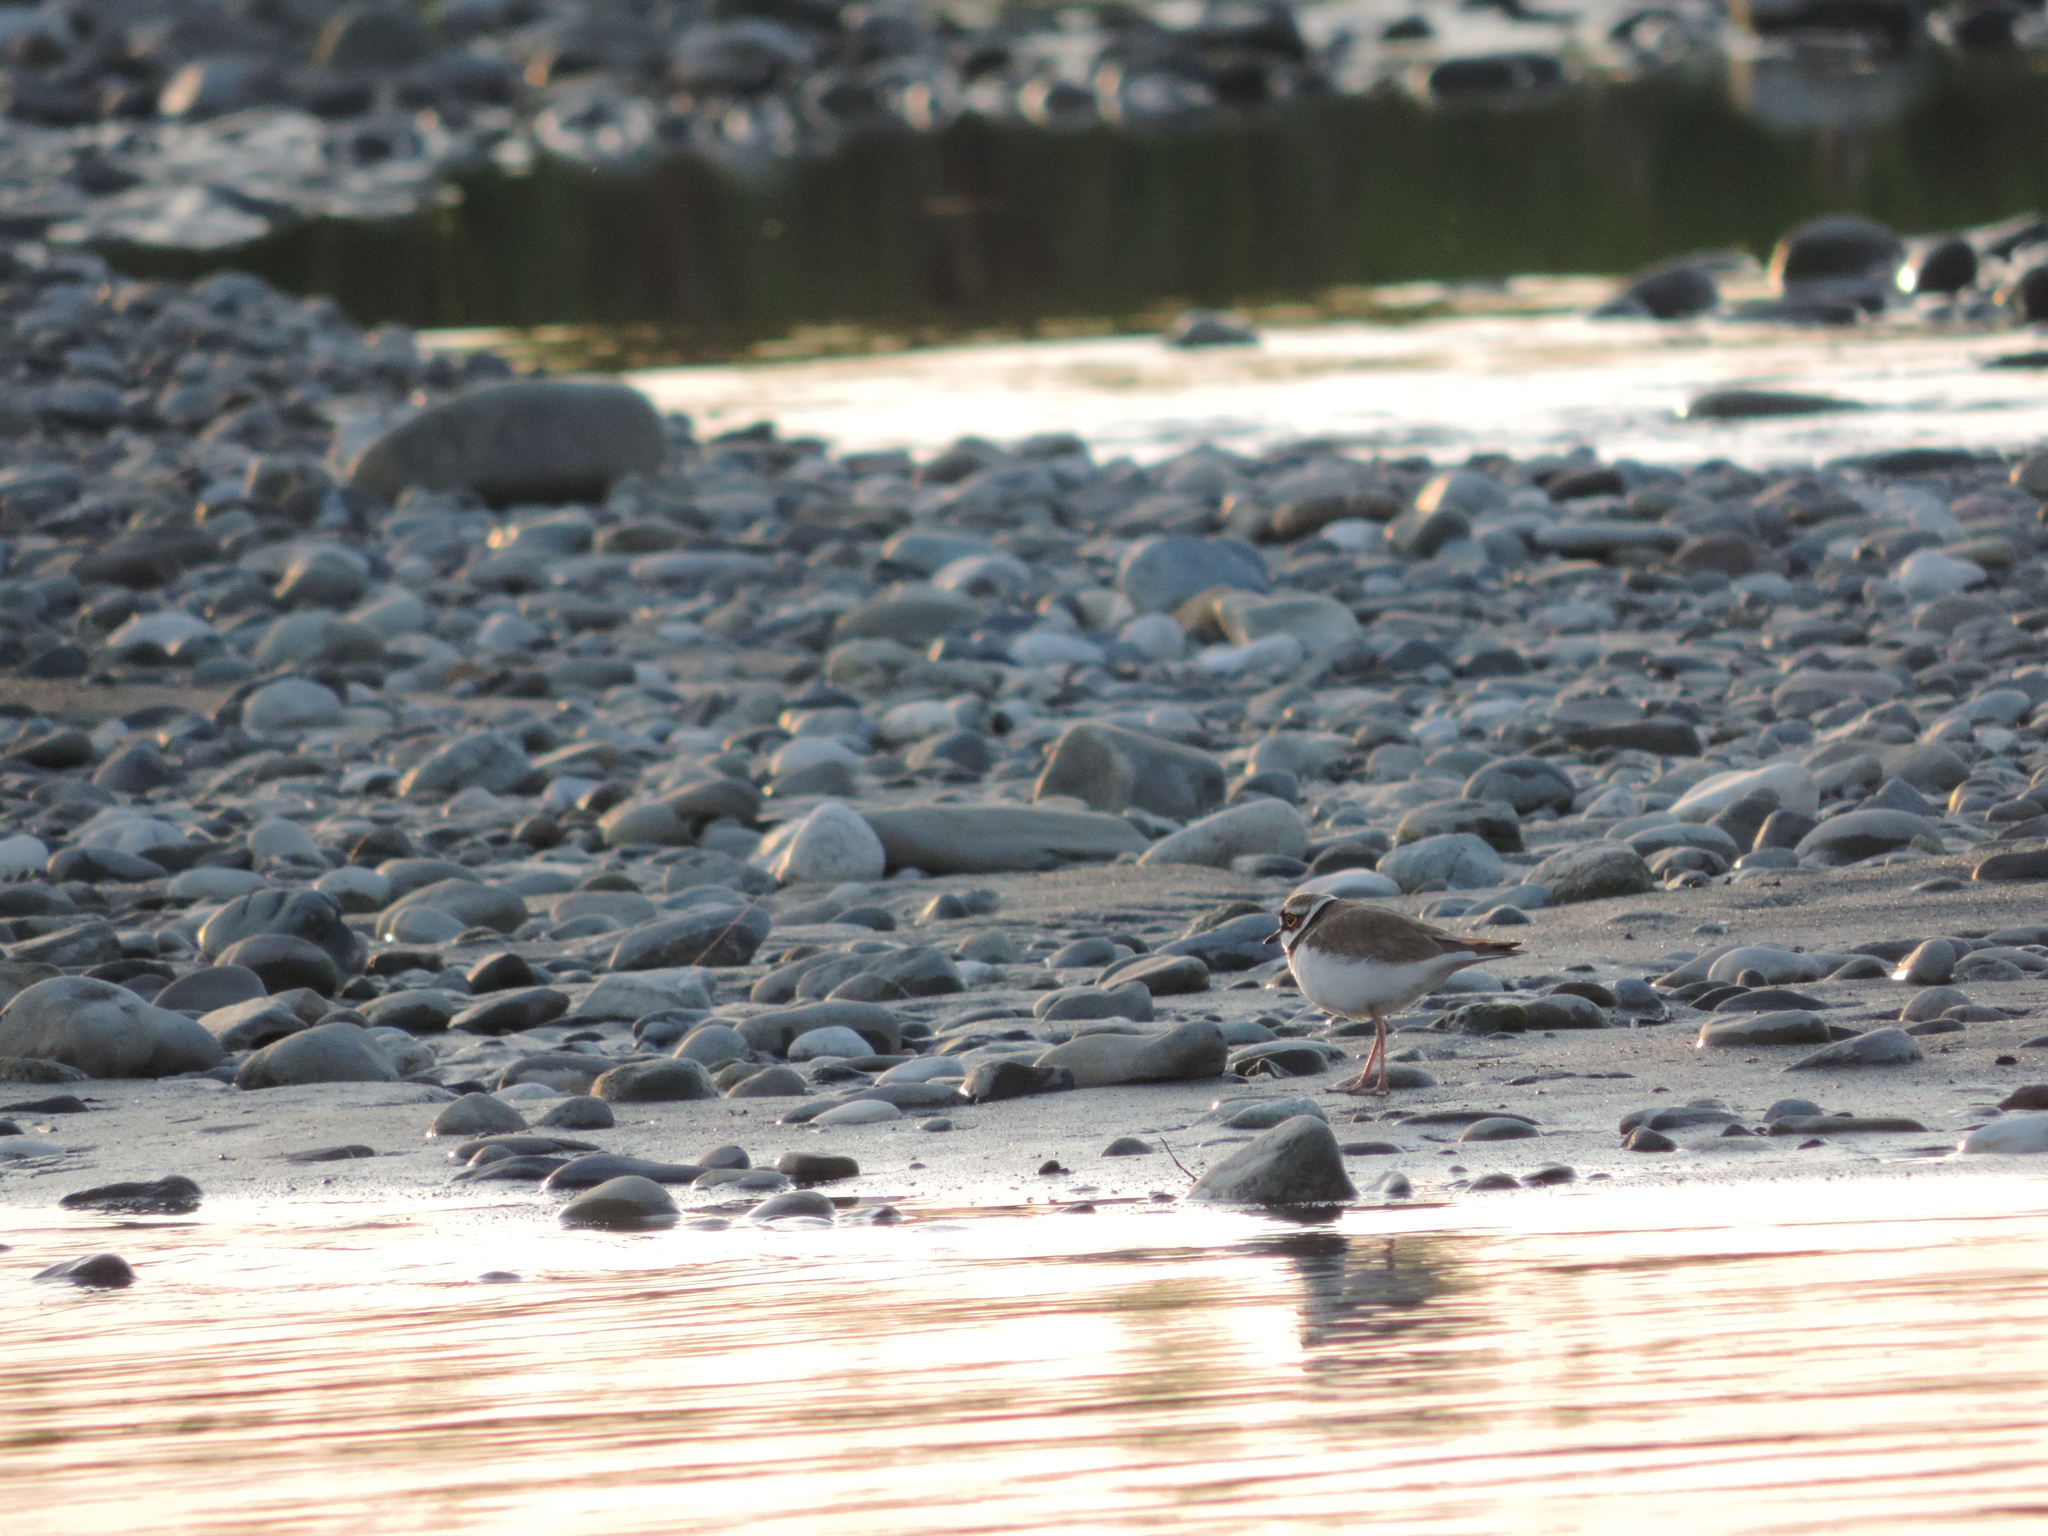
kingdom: Animalia
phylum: Chordata
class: Aves
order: Charadriiformes
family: Charadriidae
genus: Charadrius
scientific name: Charadrius dubius
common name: Little ringed plover
